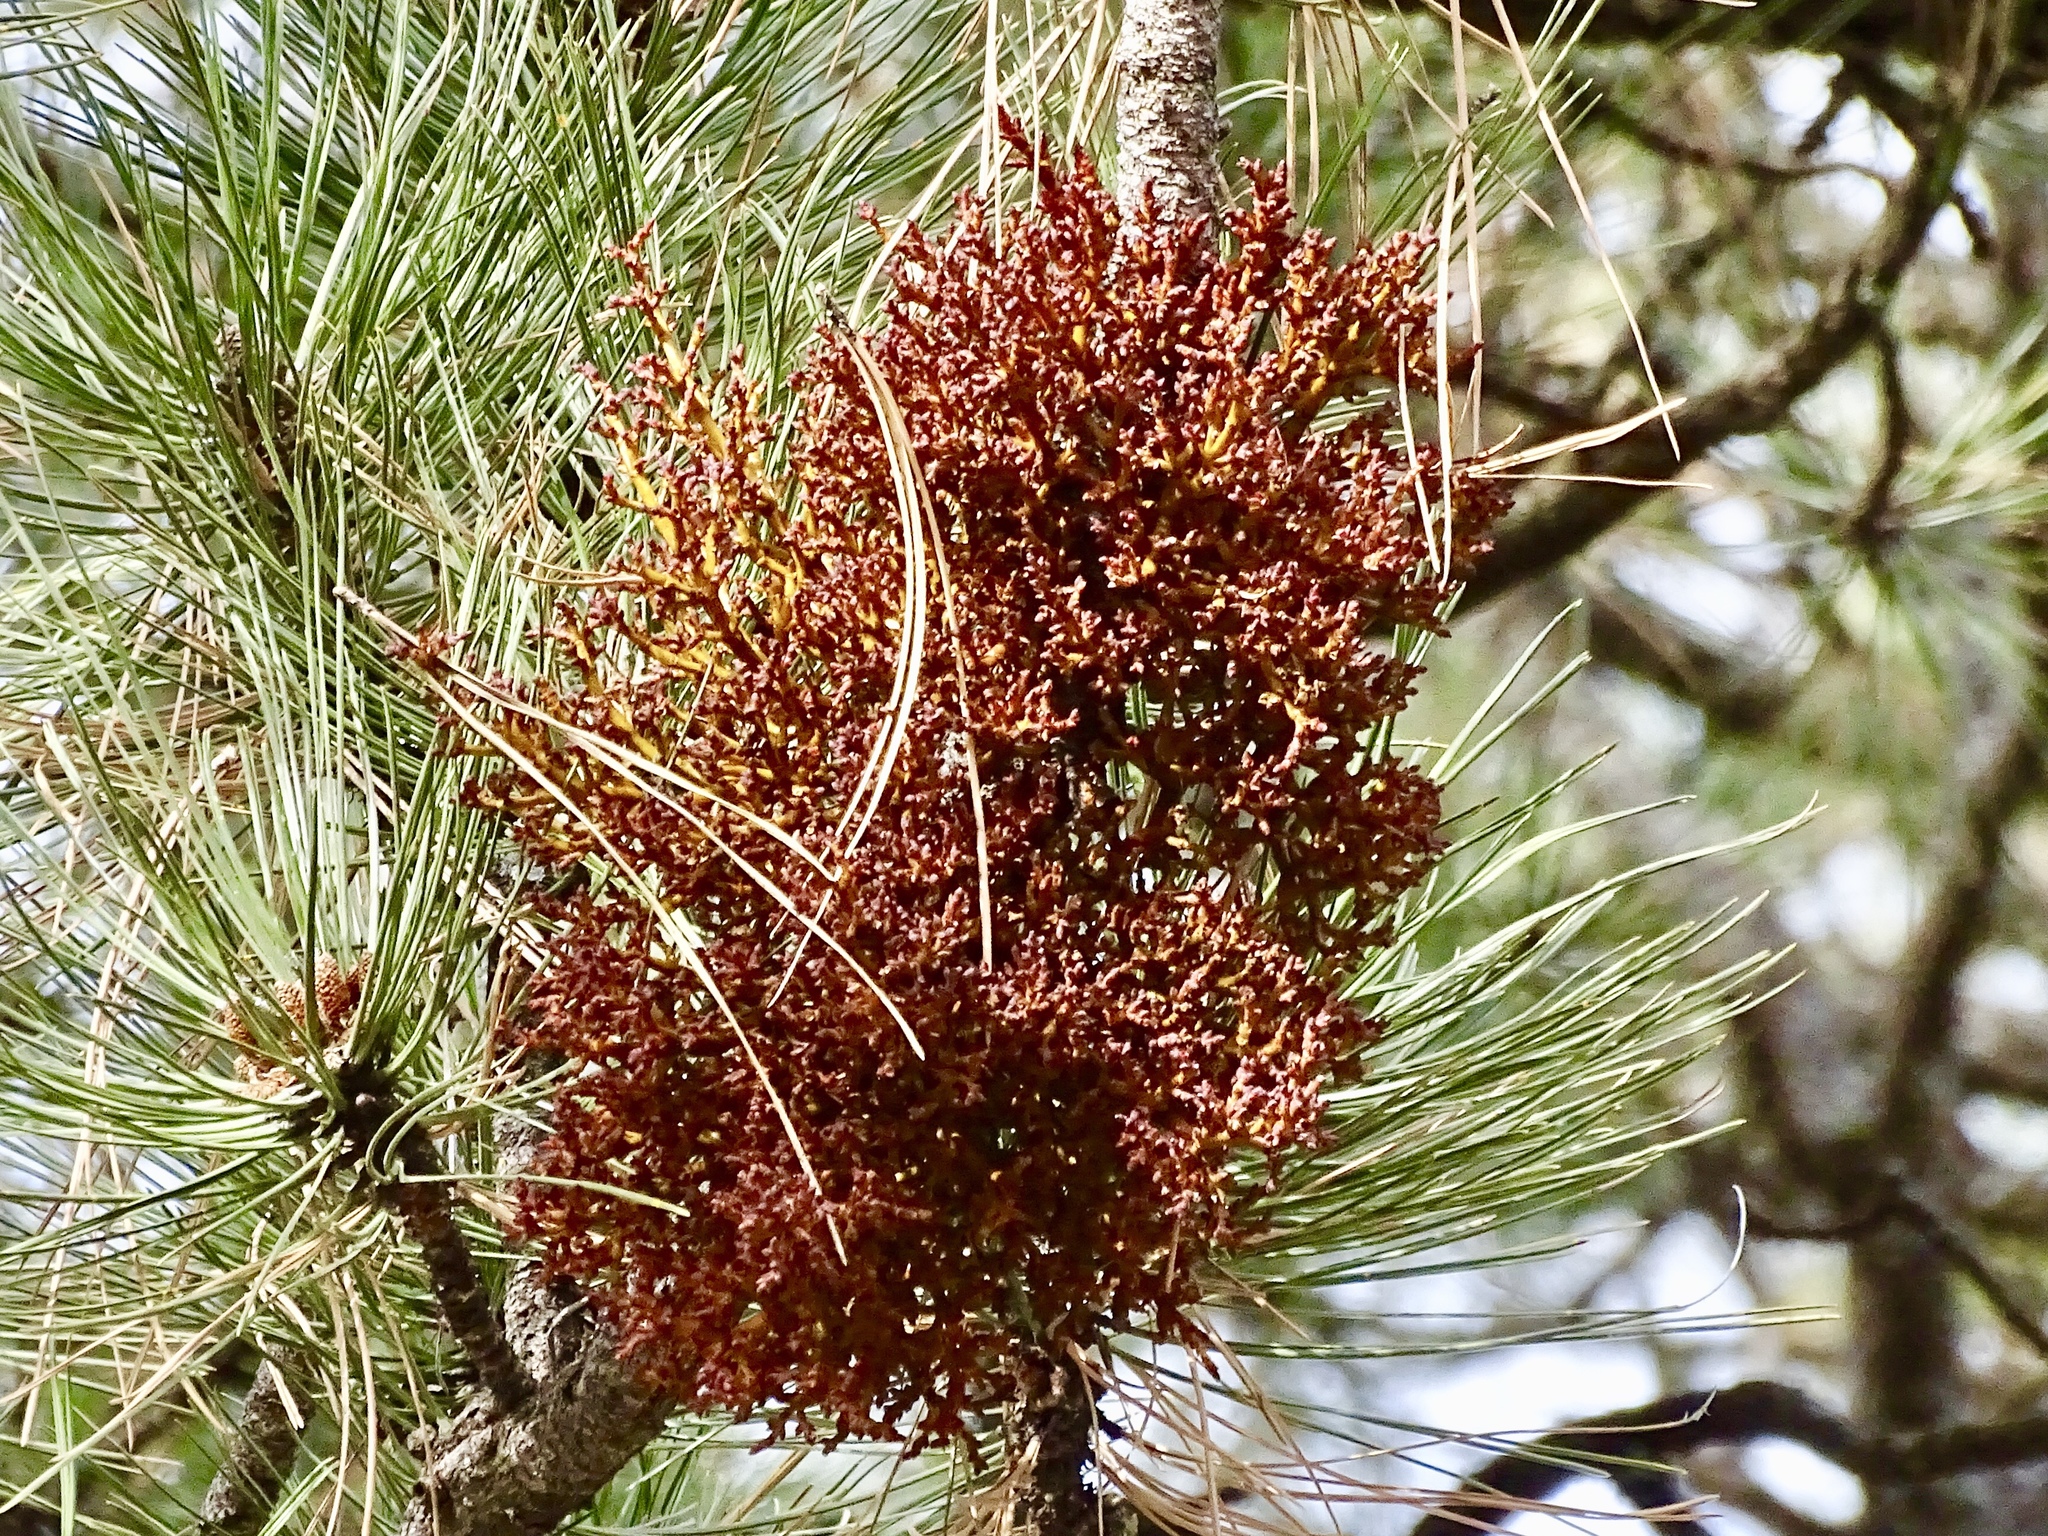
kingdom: Plantae
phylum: Tracheophyta
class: Magnoliopsida
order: Santalales
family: Viscaceae
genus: Arceuthobium
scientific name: Arceuthobium vaginatum
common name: Southwestern dwarf-mistletoe
